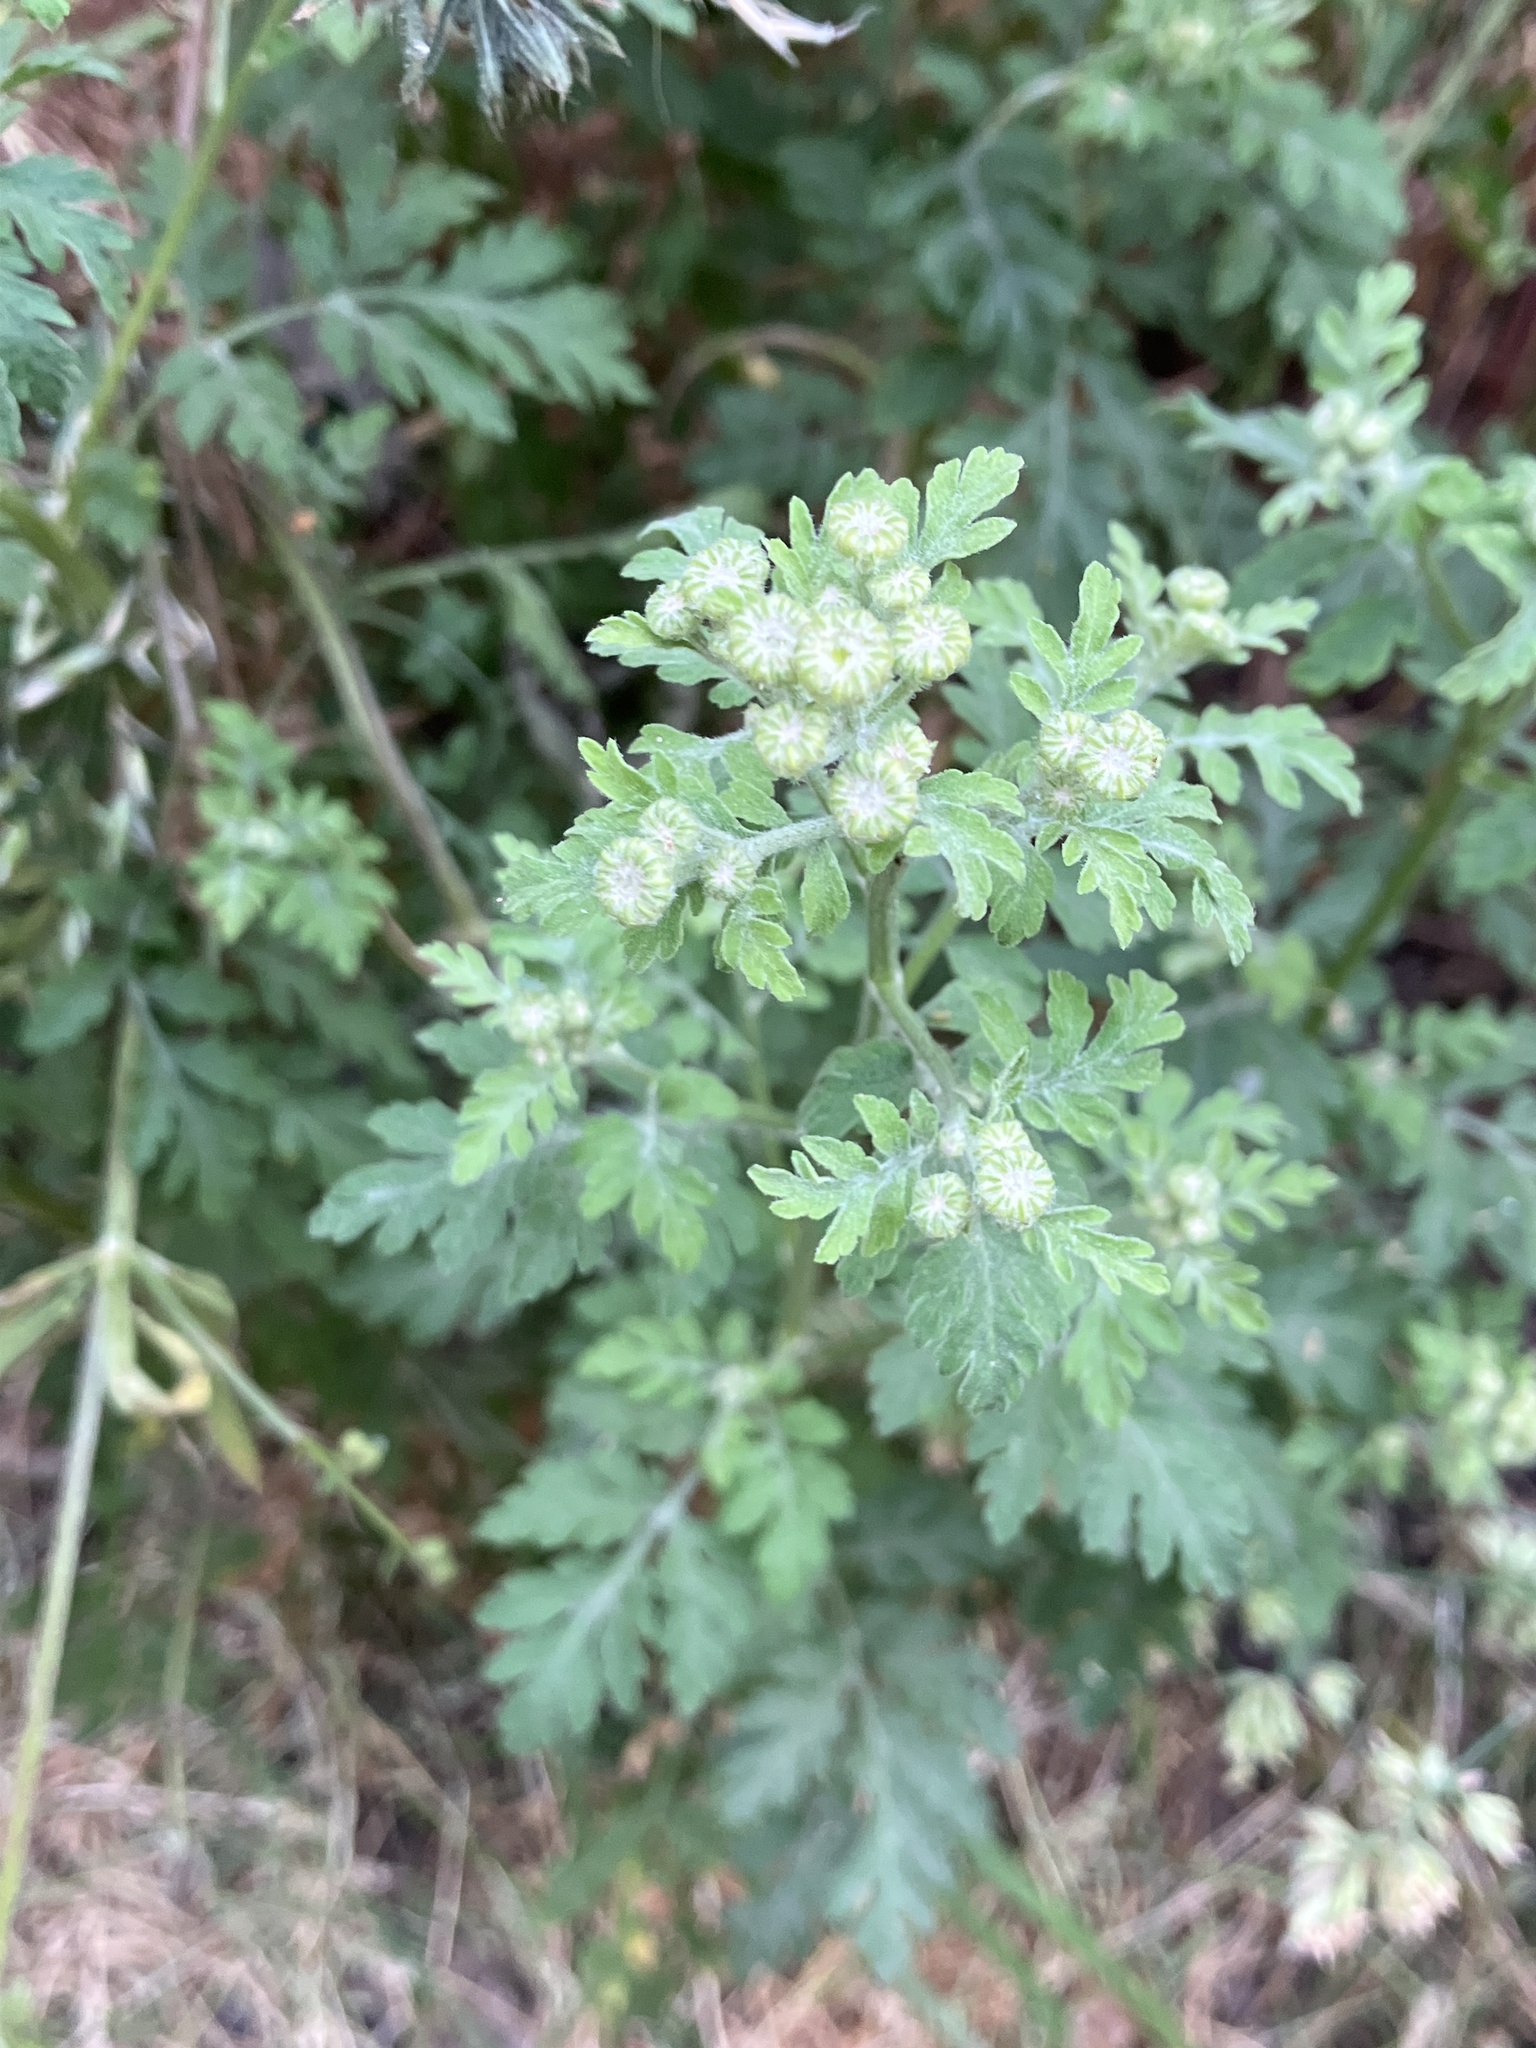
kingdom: Plantae
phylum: Tracheophyta
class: Magnoliopsida
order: Asterales
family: Asteraceae
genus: Tanacetum
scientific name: Tanacetum parthenium
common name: Feverfew
